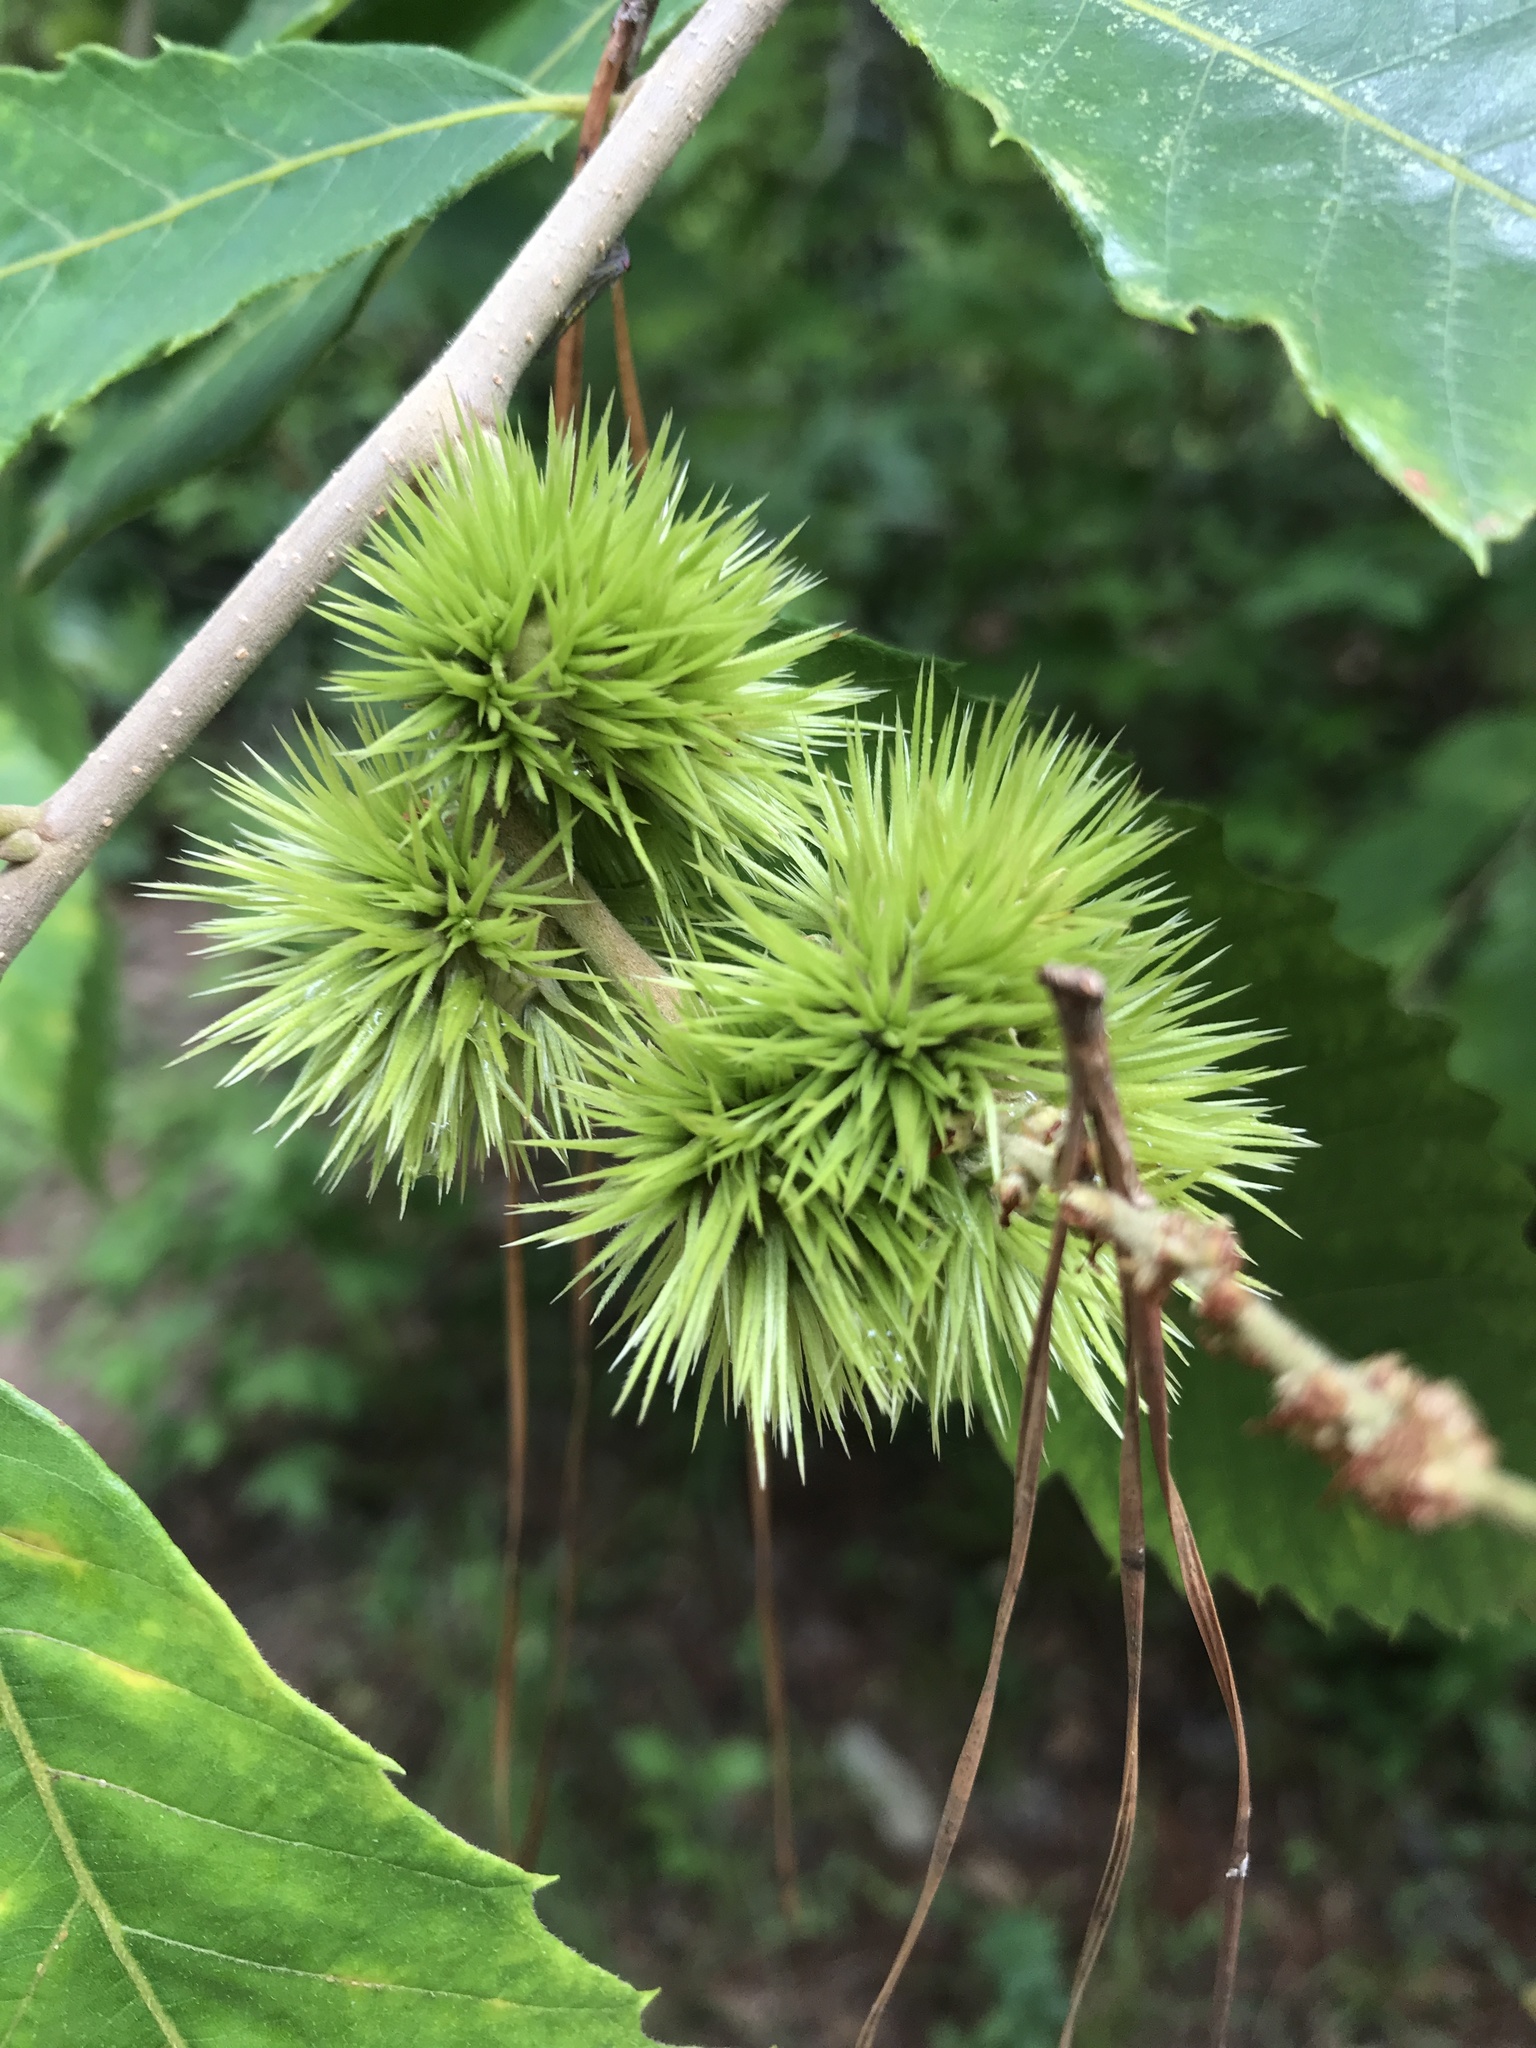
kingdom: Plantae
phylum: Tracheophyta
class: Magnoliopsida
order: Fagales
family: Fagaceae
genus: Castanea
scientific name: Castanea pumila
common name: Chinkapin
